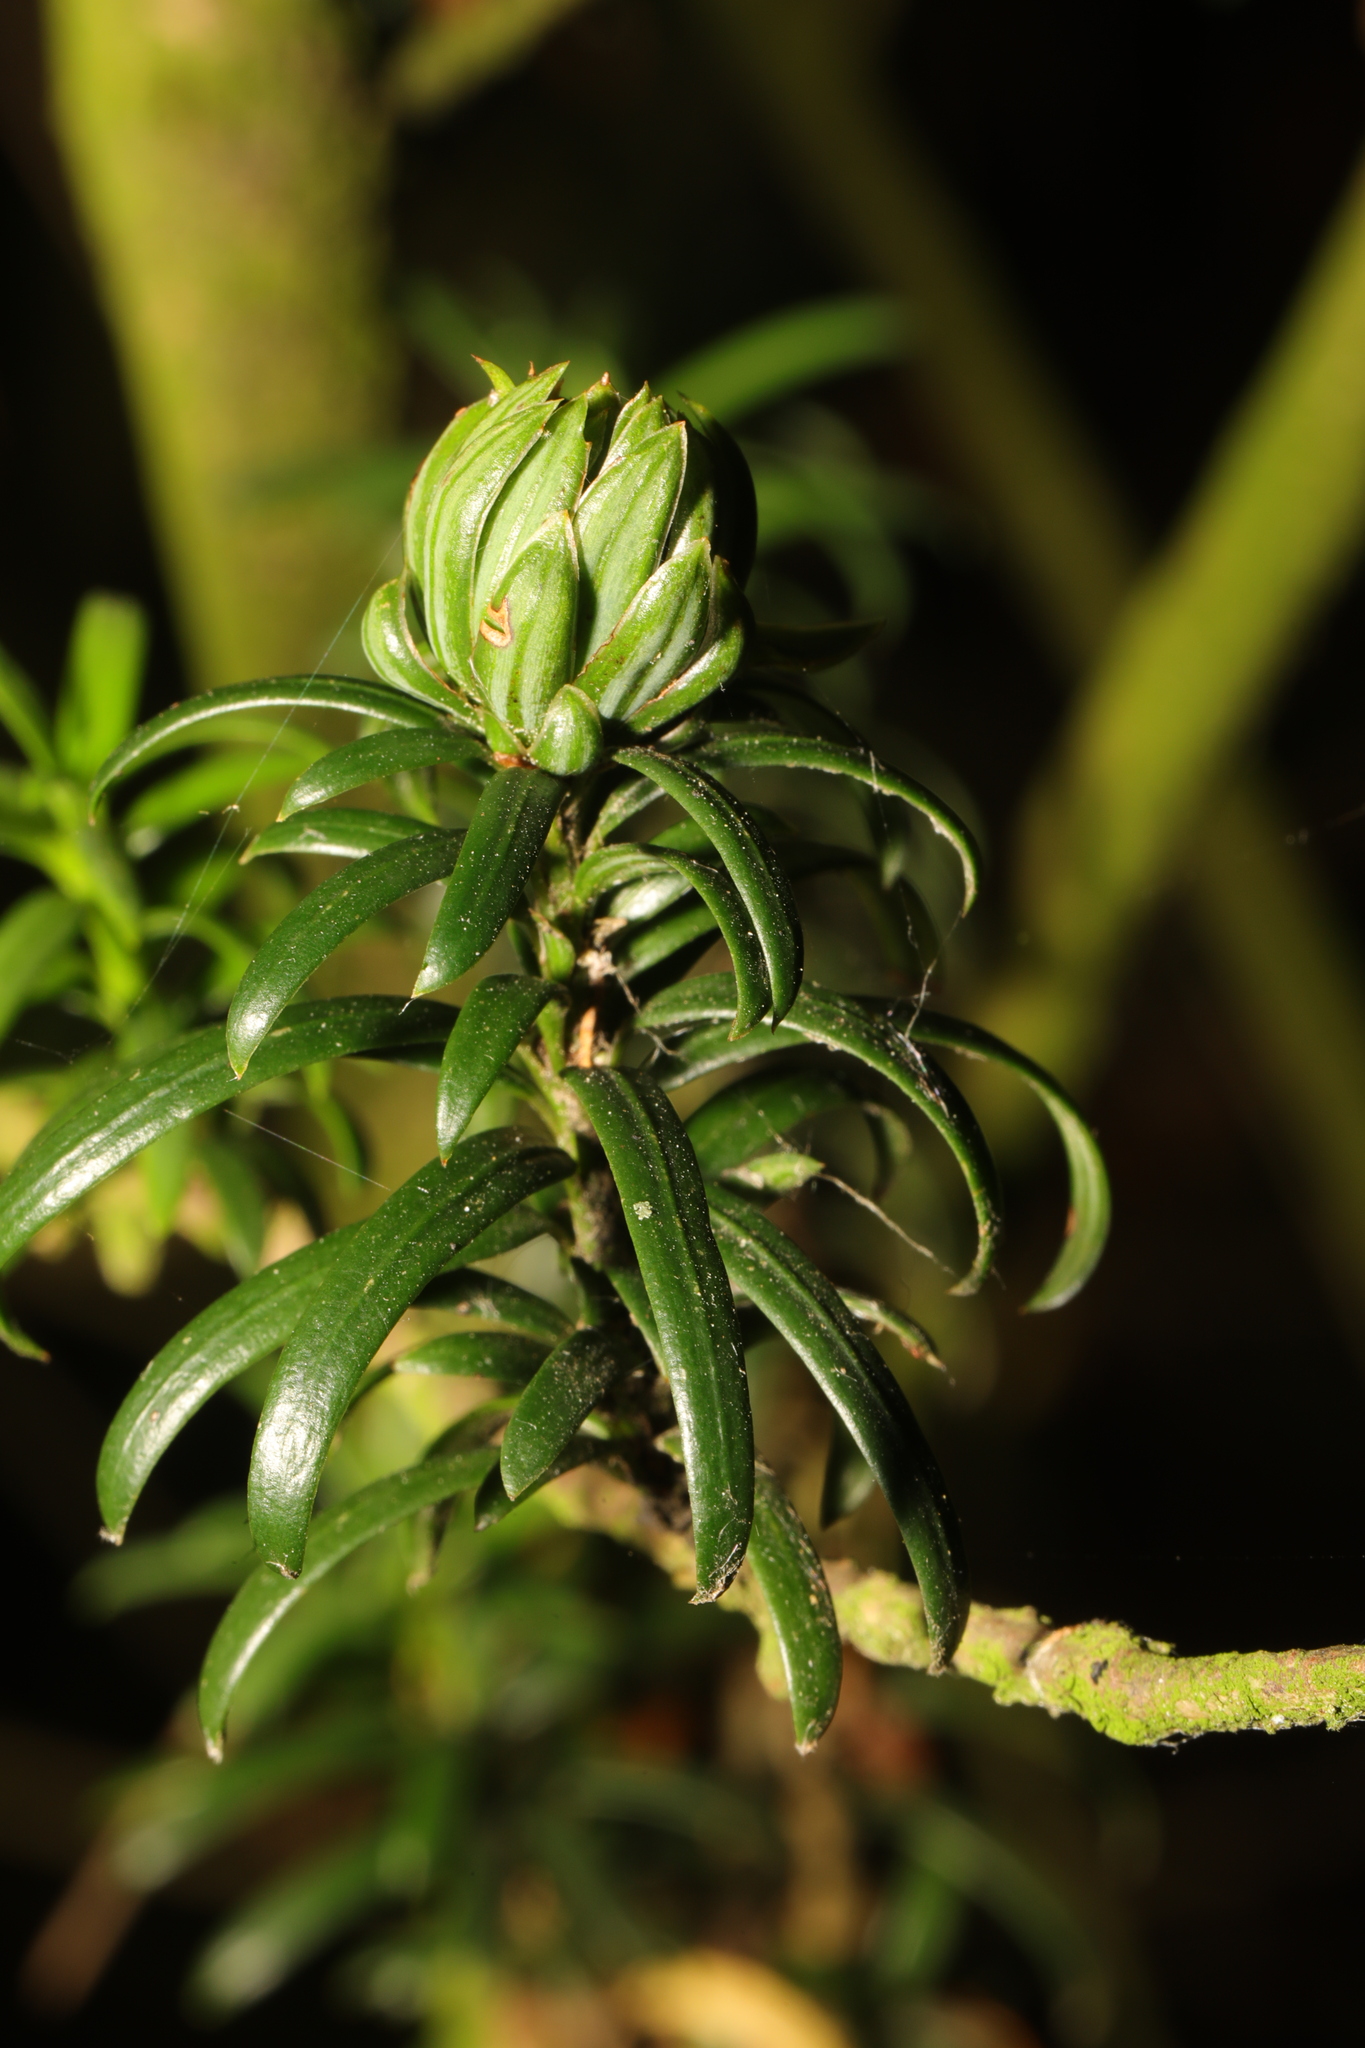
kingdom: Animalia
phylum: Arthropoda
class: Insecta
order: Diptera
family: Cecidomyiidae
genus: Taxomyia
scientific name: Taxomyia taxi
